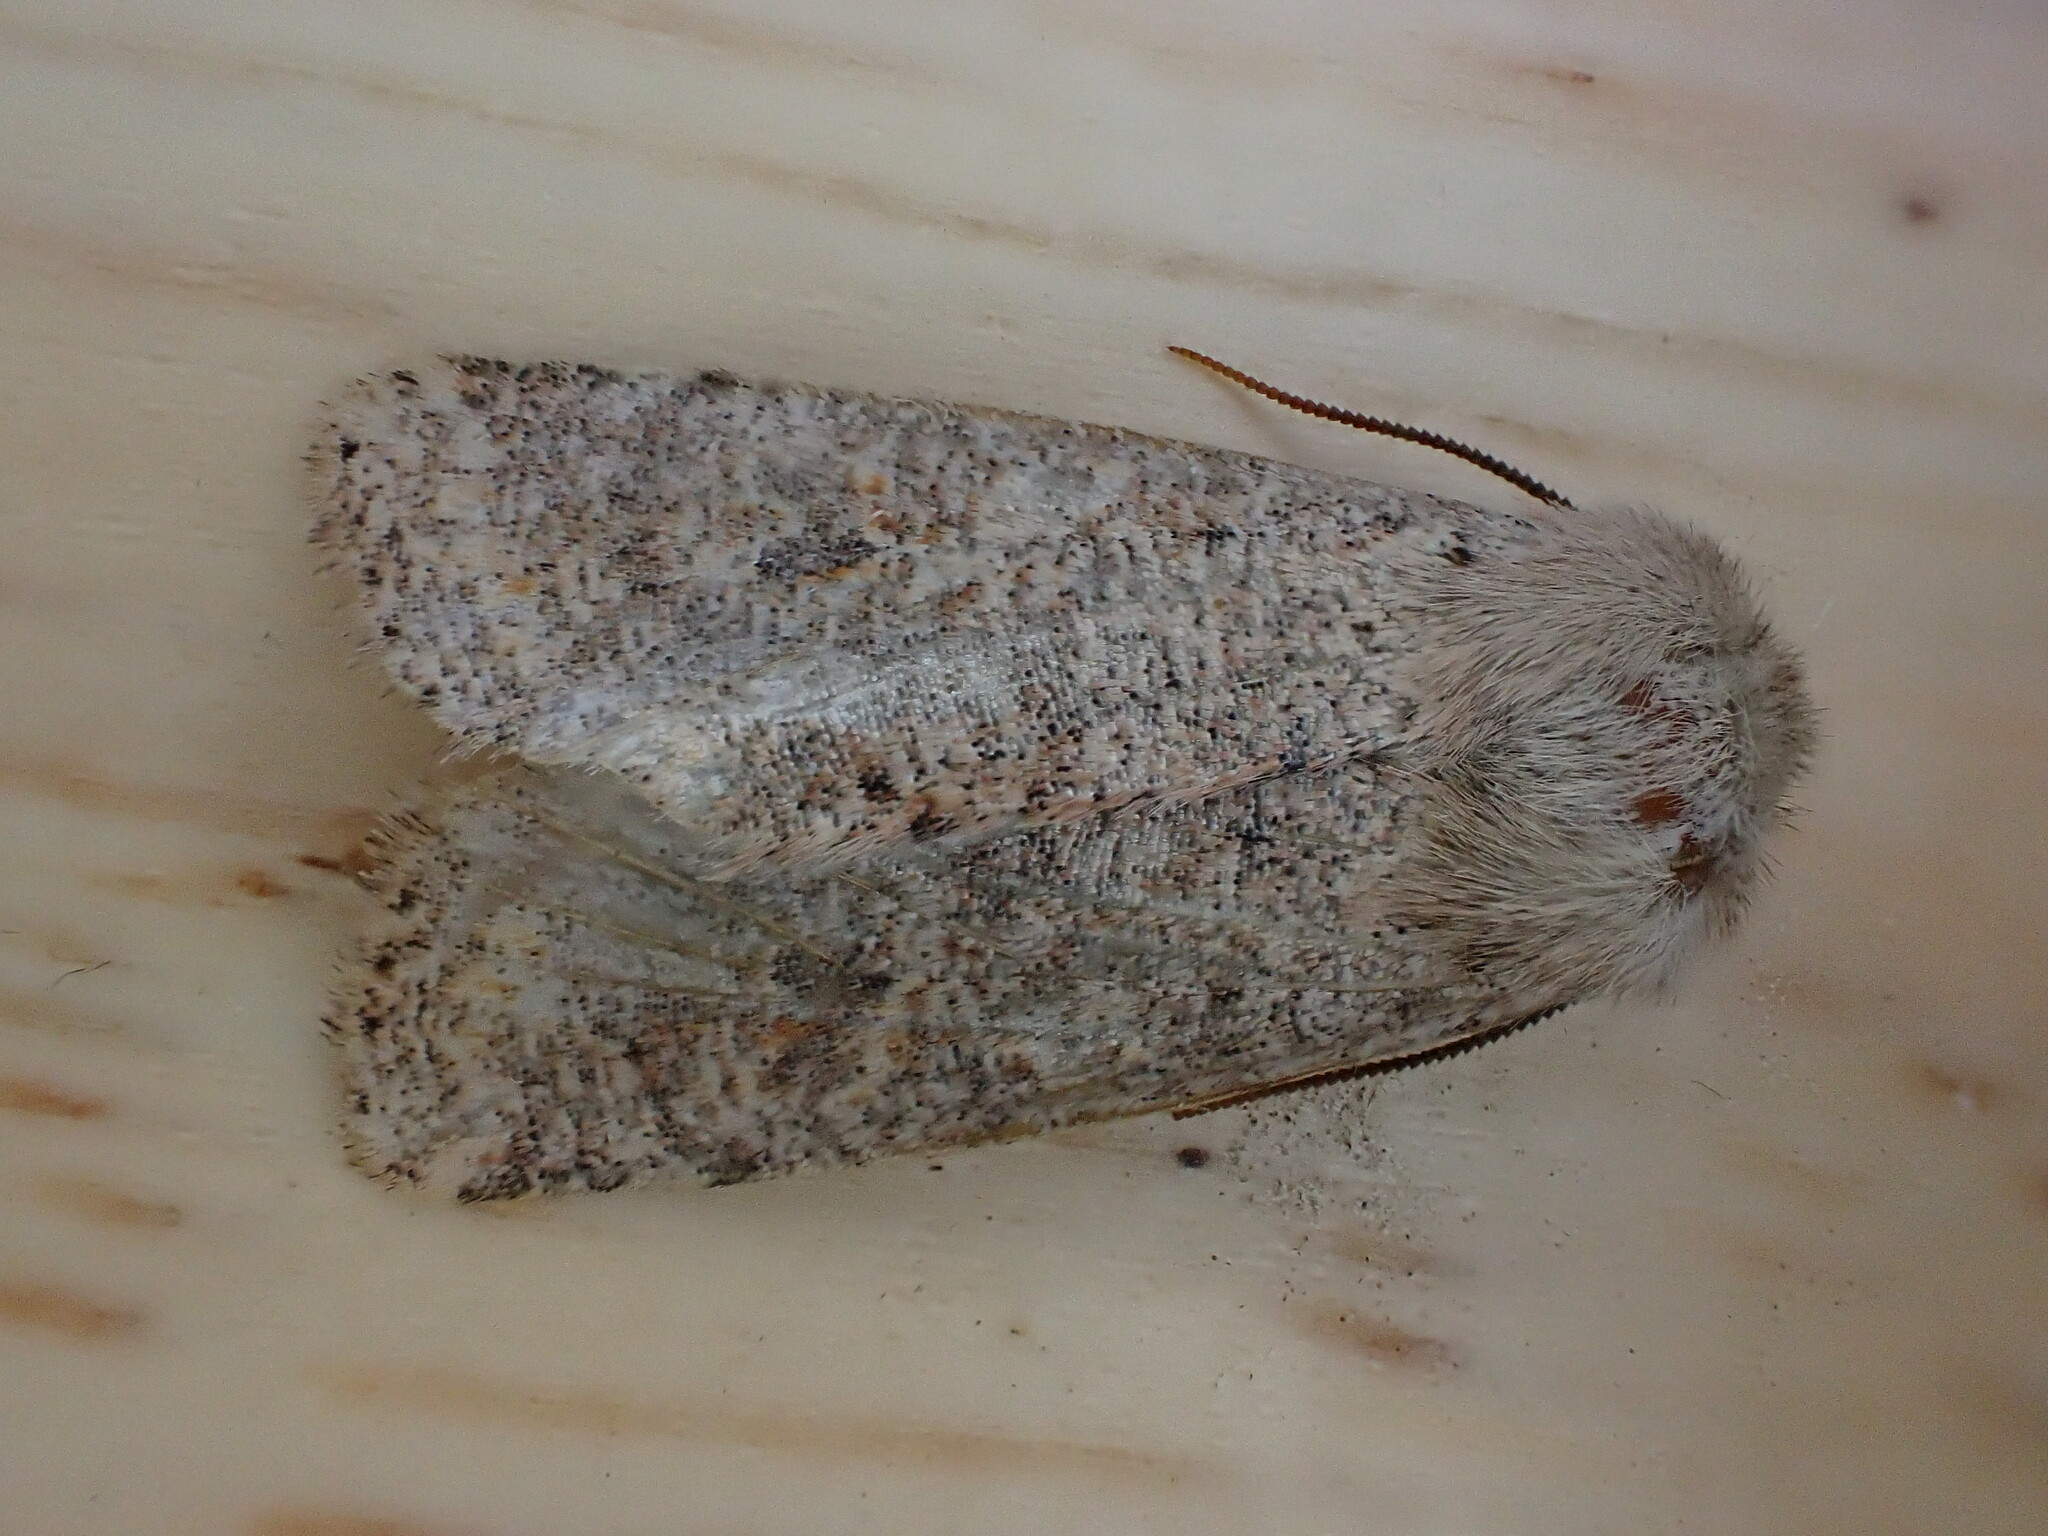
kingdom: Animalia
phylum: Arthropoda
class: Insecta
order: Lepidoptera
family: Noctuidae
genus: Orthosia
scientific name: Orthosia cruda
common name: Small quaker
